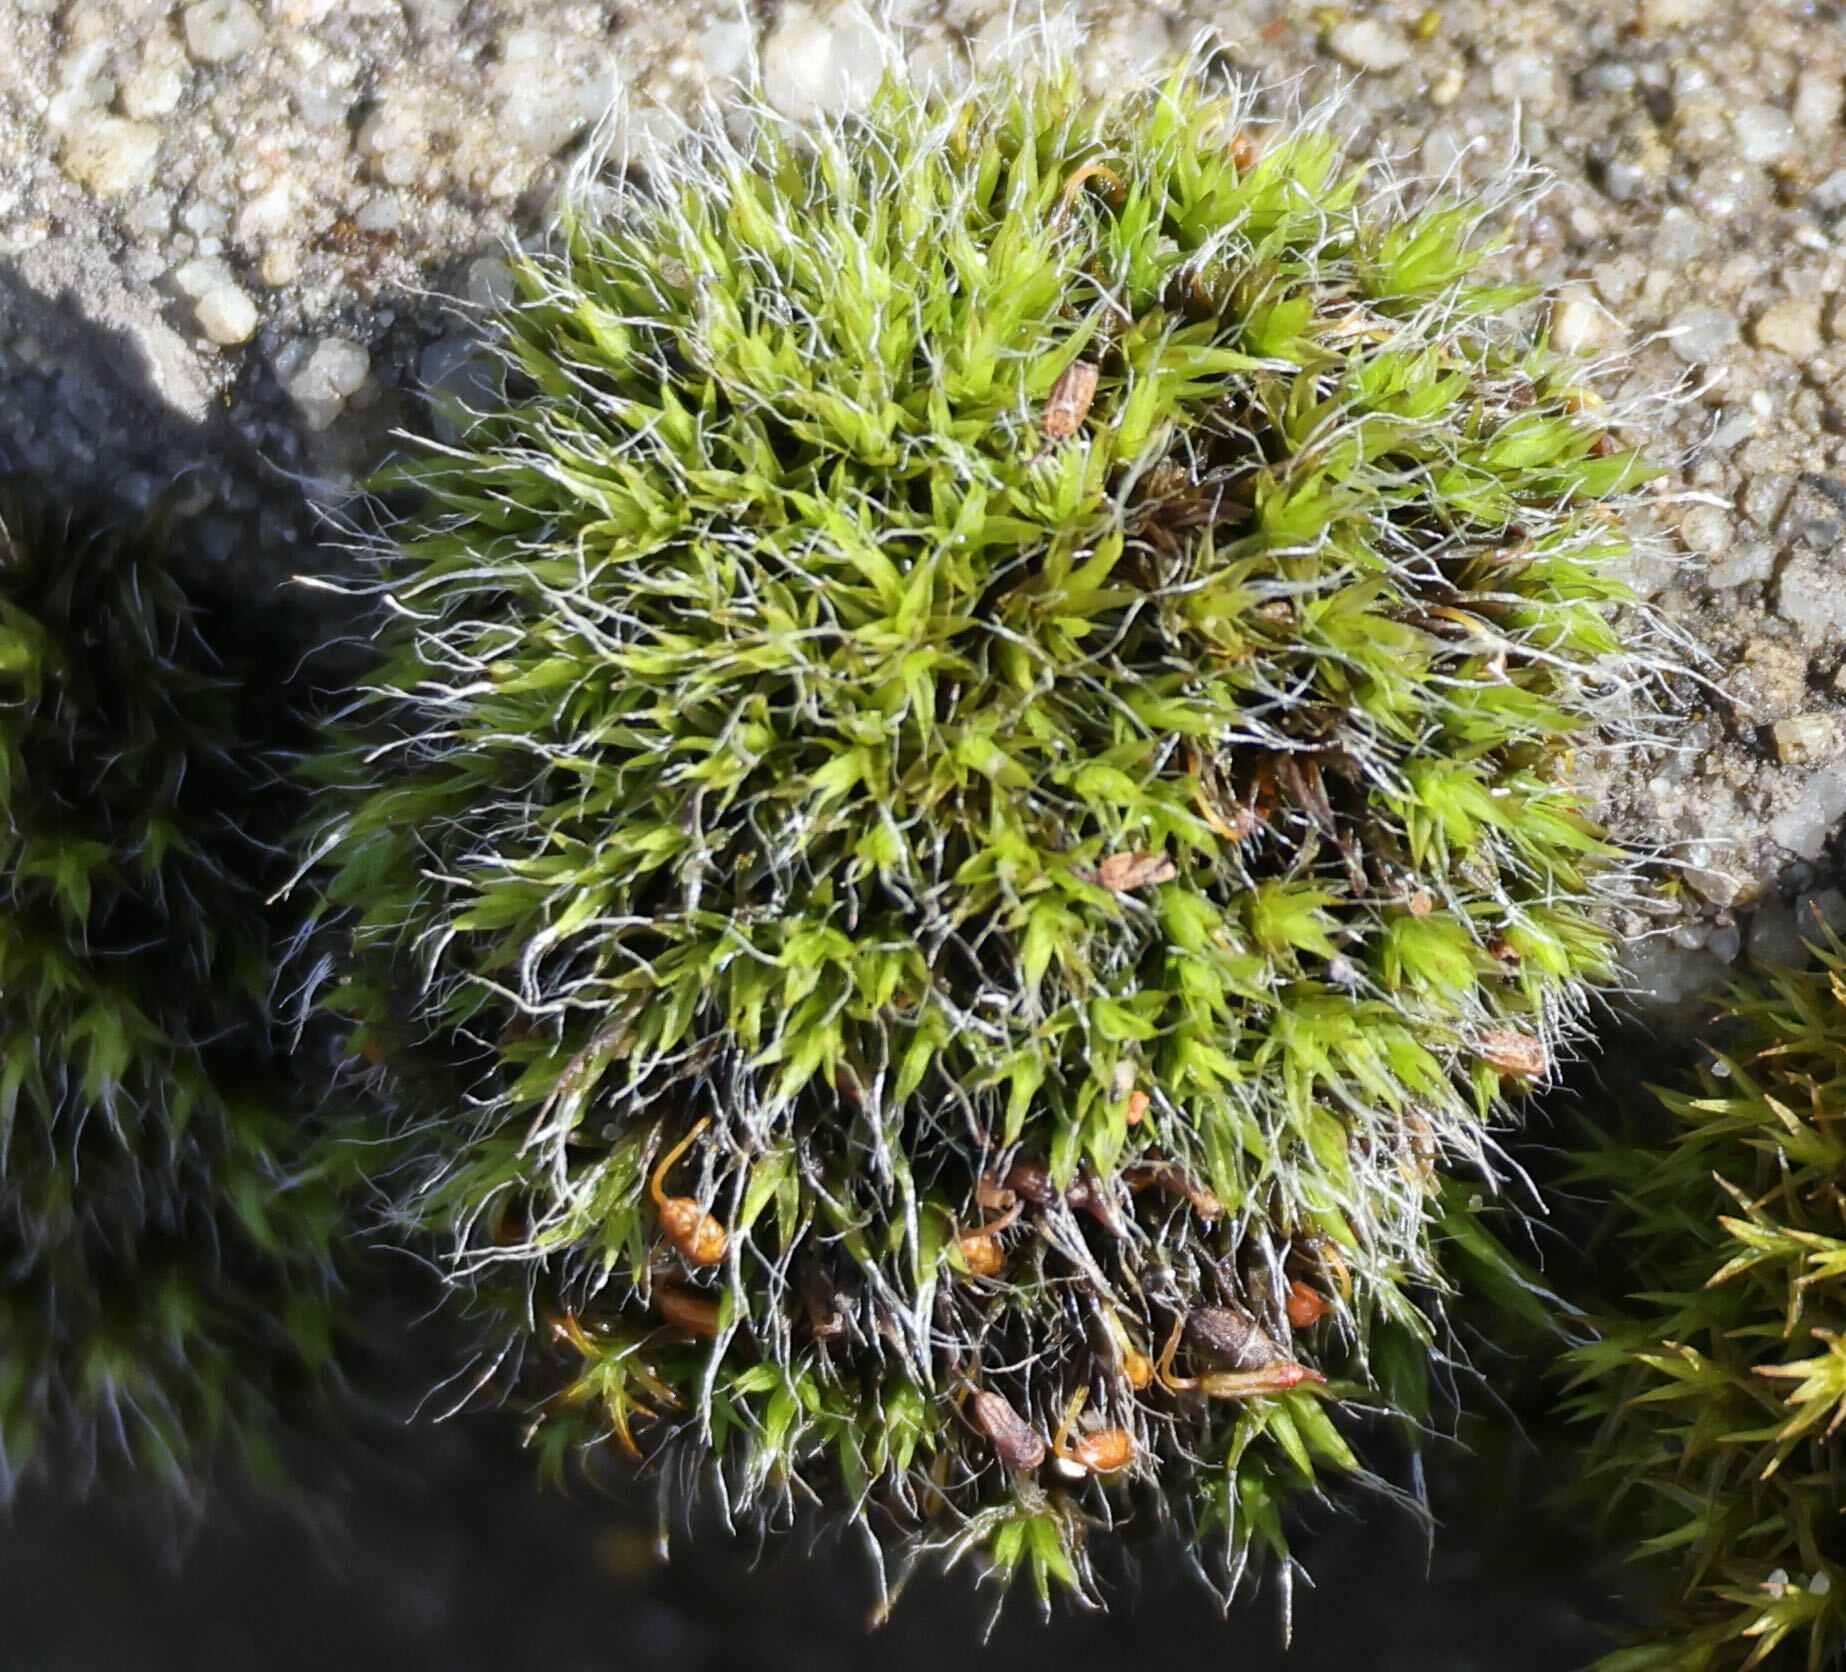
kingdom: Plantae
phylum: Bryophyta
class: Bryopsida
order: Grimmiales
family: Grimmiaceae
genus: Grimmia
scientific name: Grimmia pulvinata
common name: Grey-cushioned grimmia
